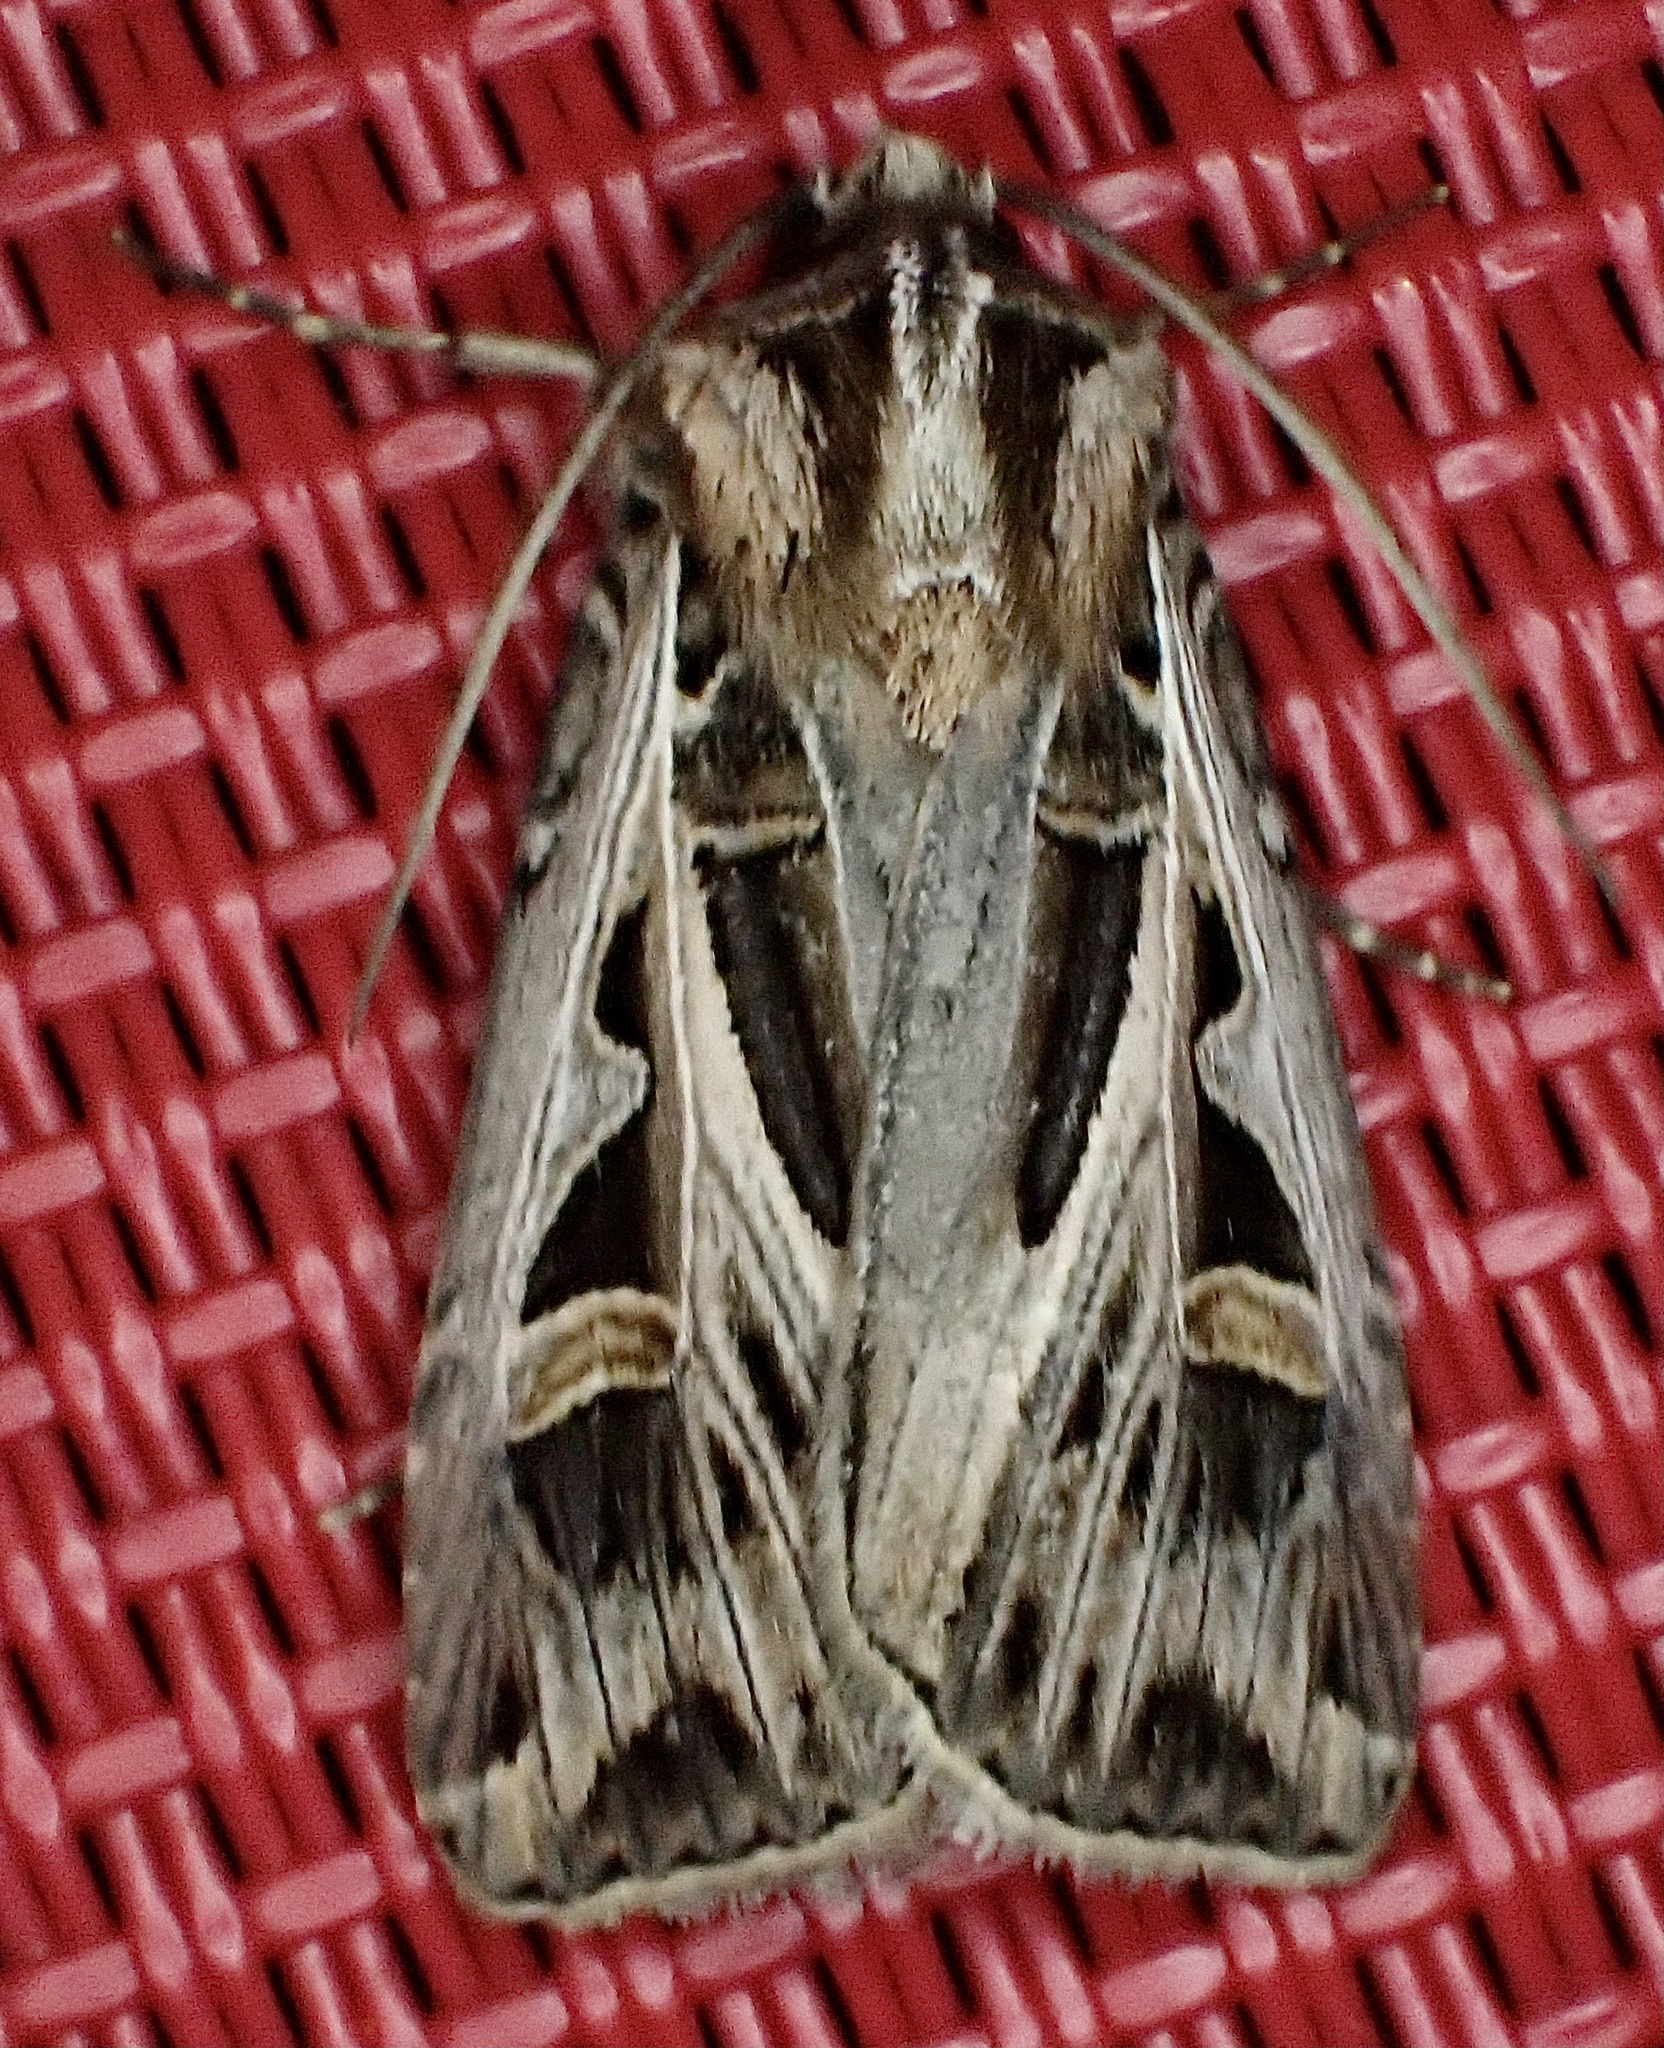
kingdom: Animalia
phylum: Arthropoda
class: Insecta
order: Lepidoptera
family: Noctuidae
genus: Feltia
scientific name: Feltia jaculifera
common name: Dingy cutworm moth
